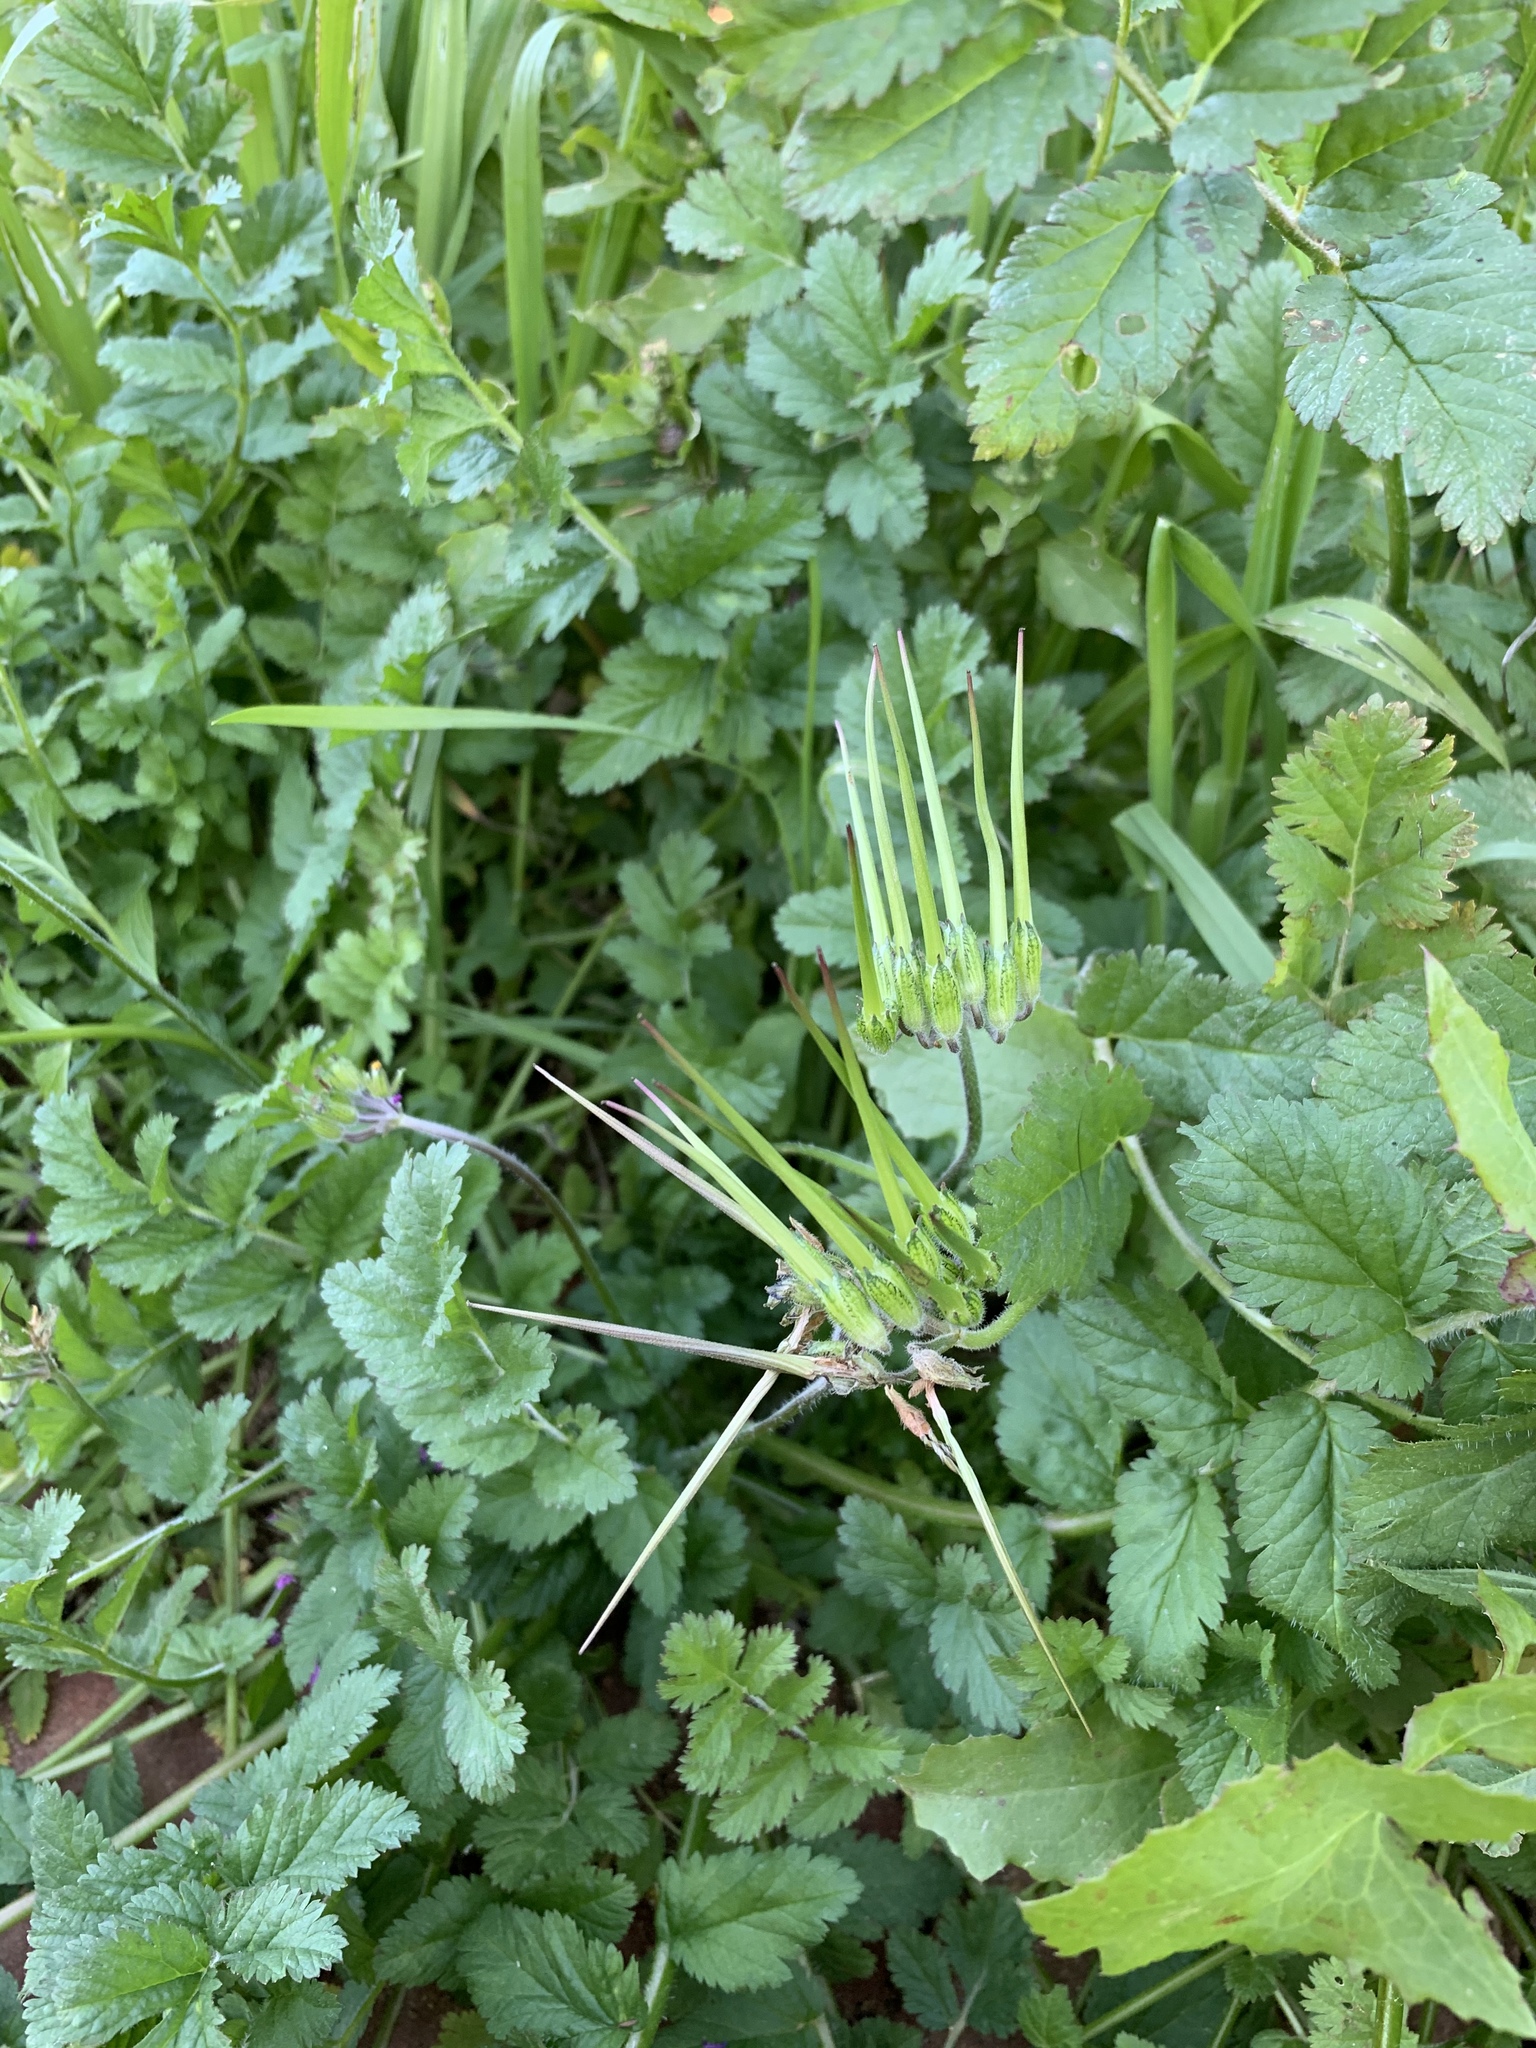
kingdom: Plantae
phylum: Tracheophyta
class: Magnoliopsida
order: Geraniales
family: Geraniaceae
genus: Erodium
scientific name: Erodium moschatum
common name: Musk stork's-bill
